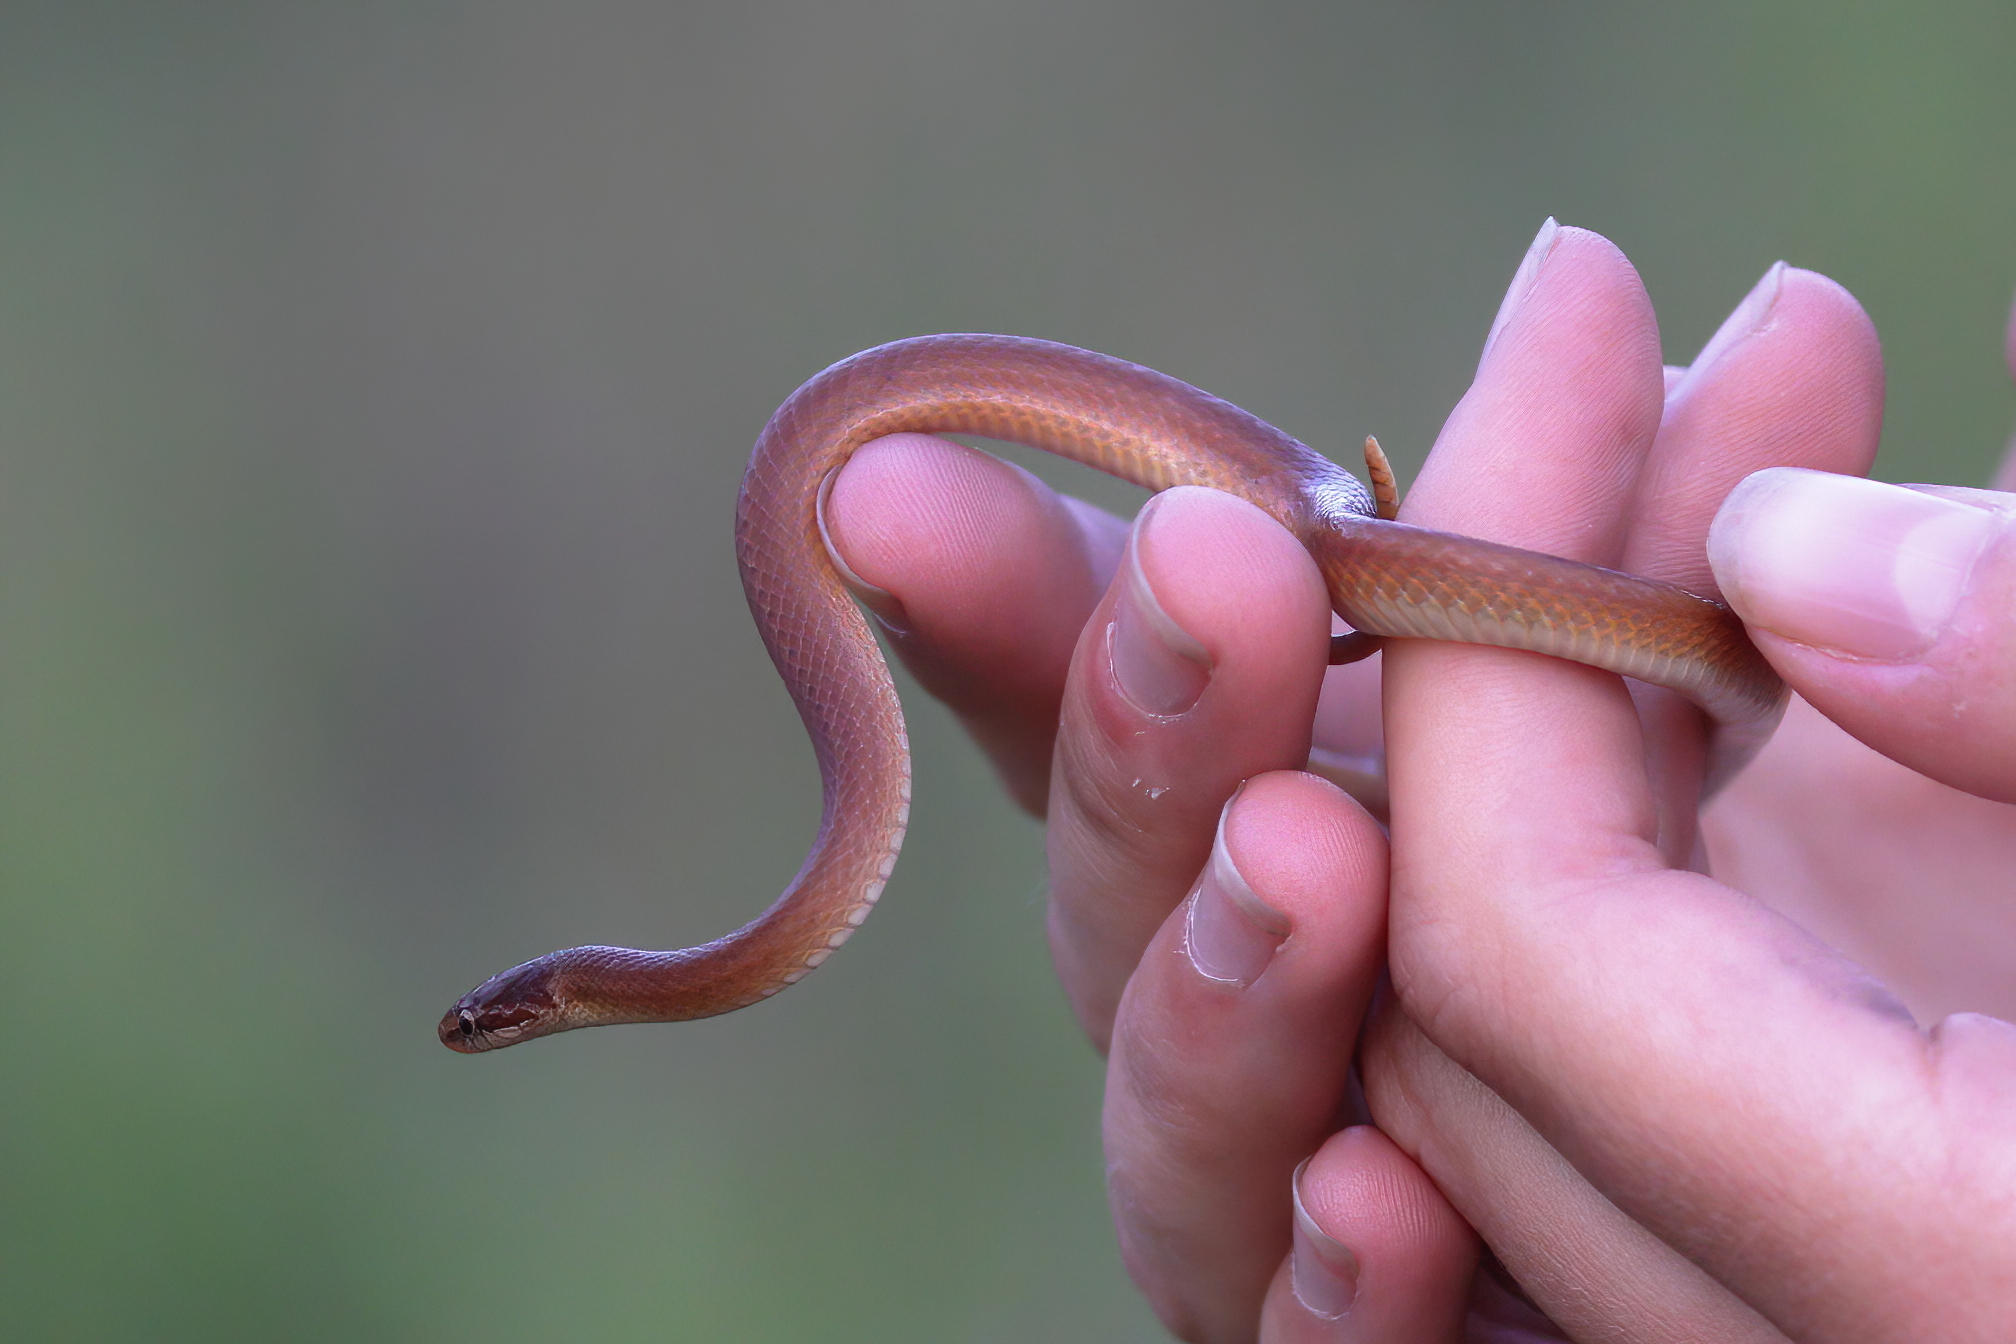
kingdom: Animalia
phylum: Chordata
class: Squamata
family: Colubridae
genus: Rhadinaea
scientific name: Rhadinaea flavilata
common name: Pine woods littersnake
